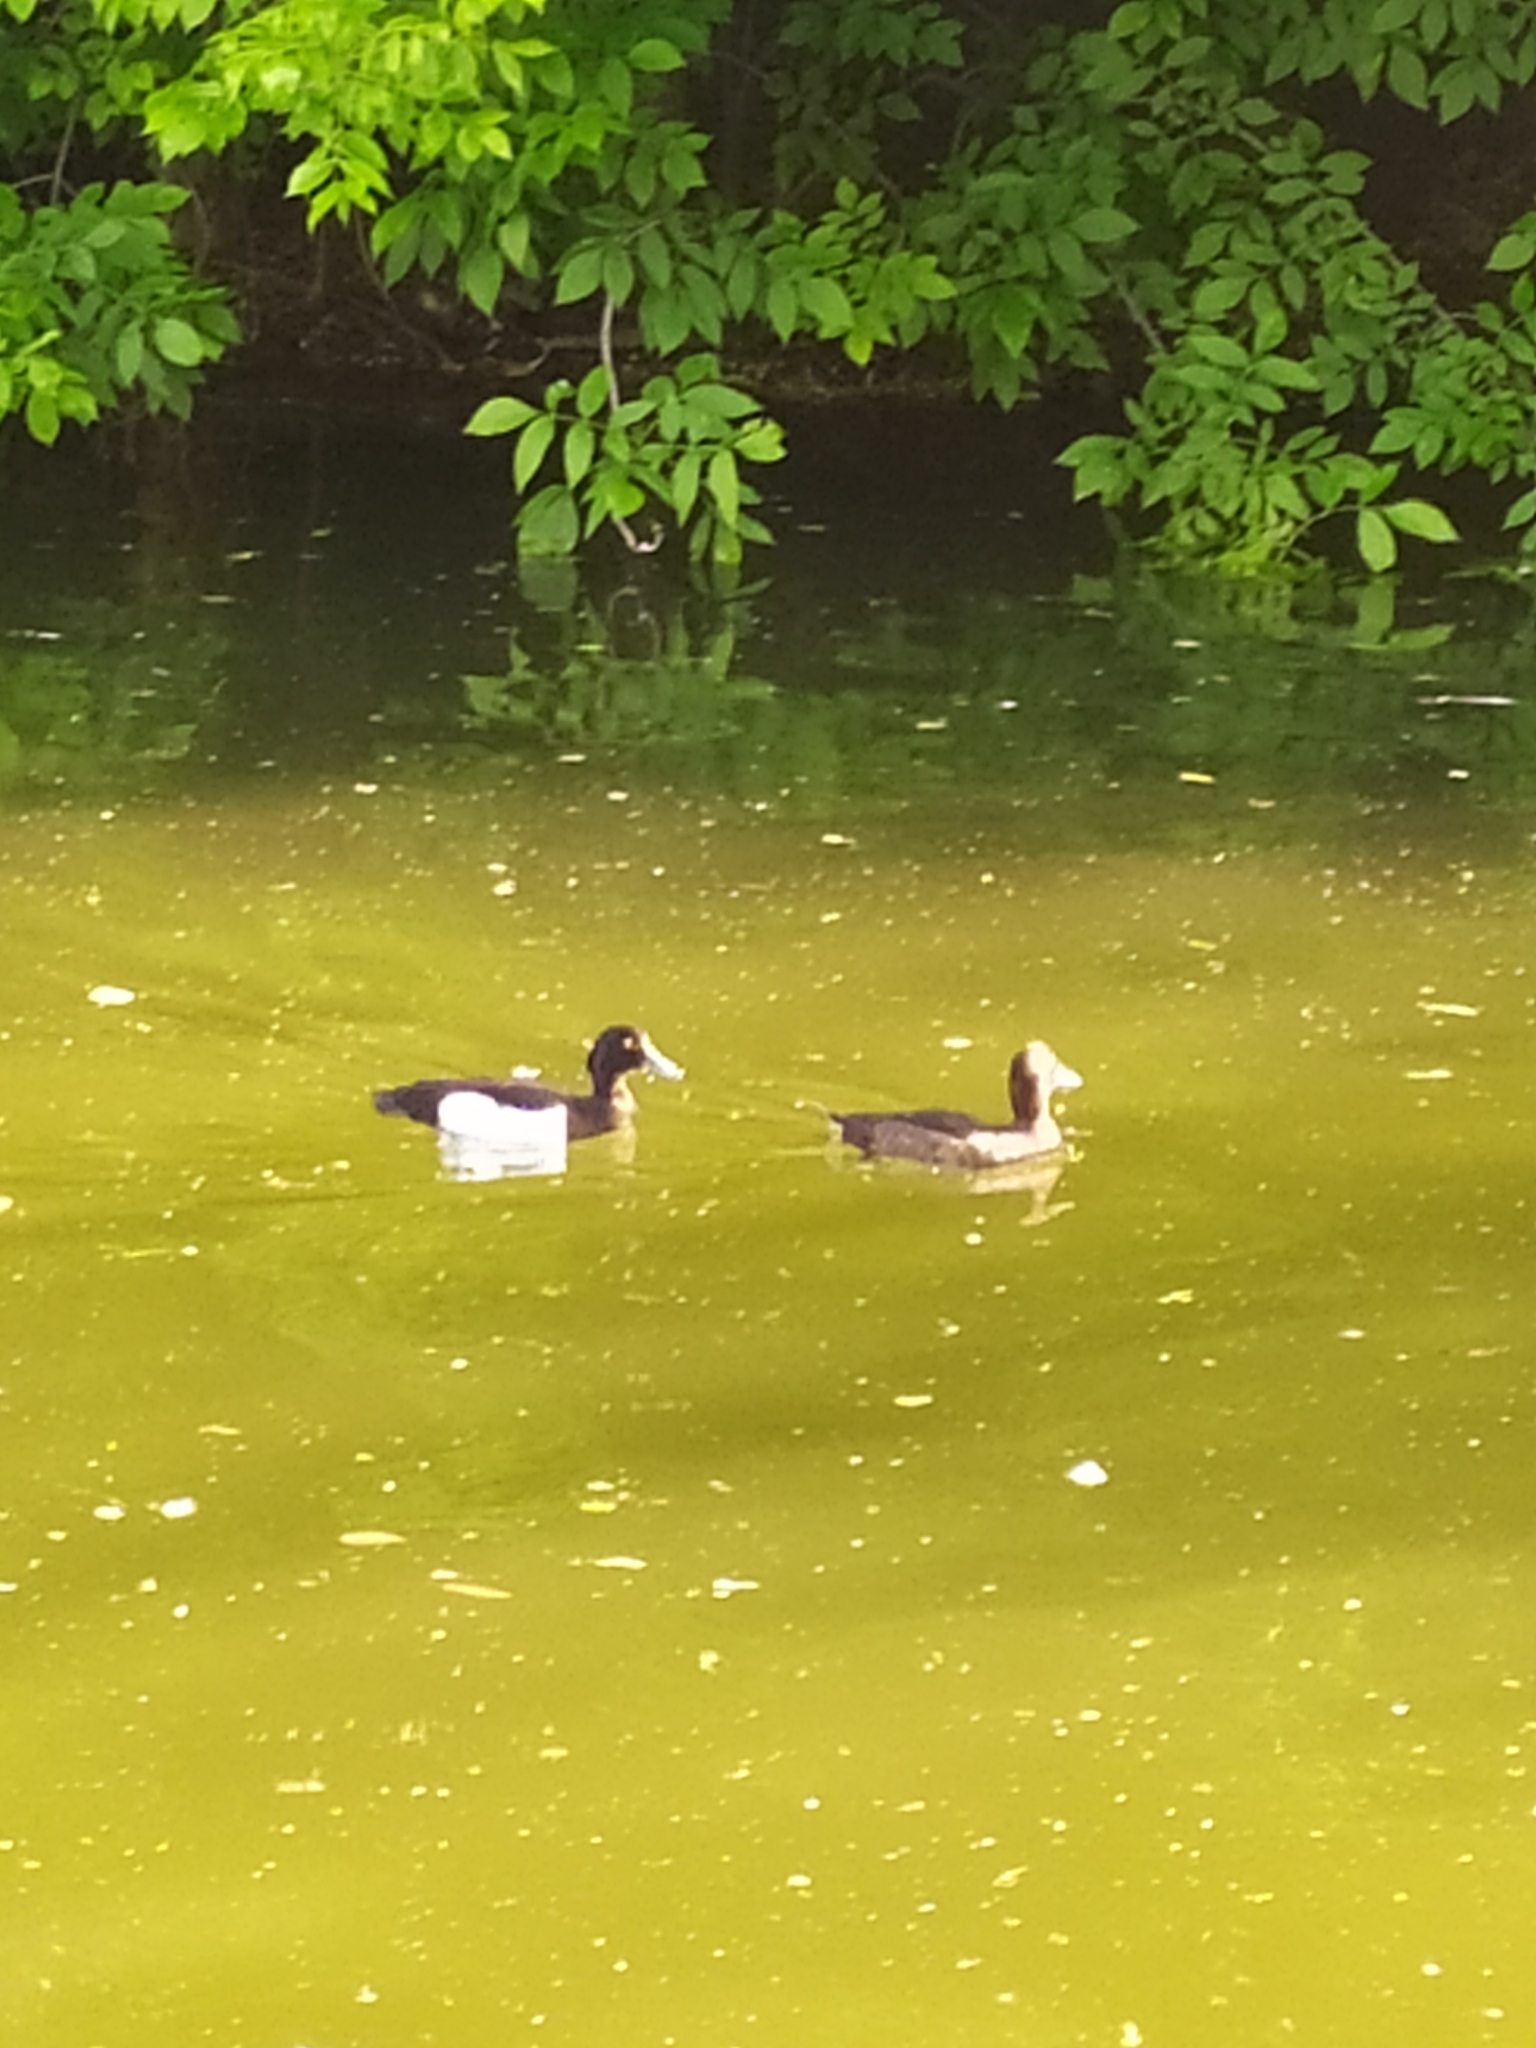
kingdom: Animalia
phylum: Chordata
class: Aves
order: Anseriformes
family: Anatidae
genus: Aythya
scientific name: Aythya fuligula
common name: Tufted duck
